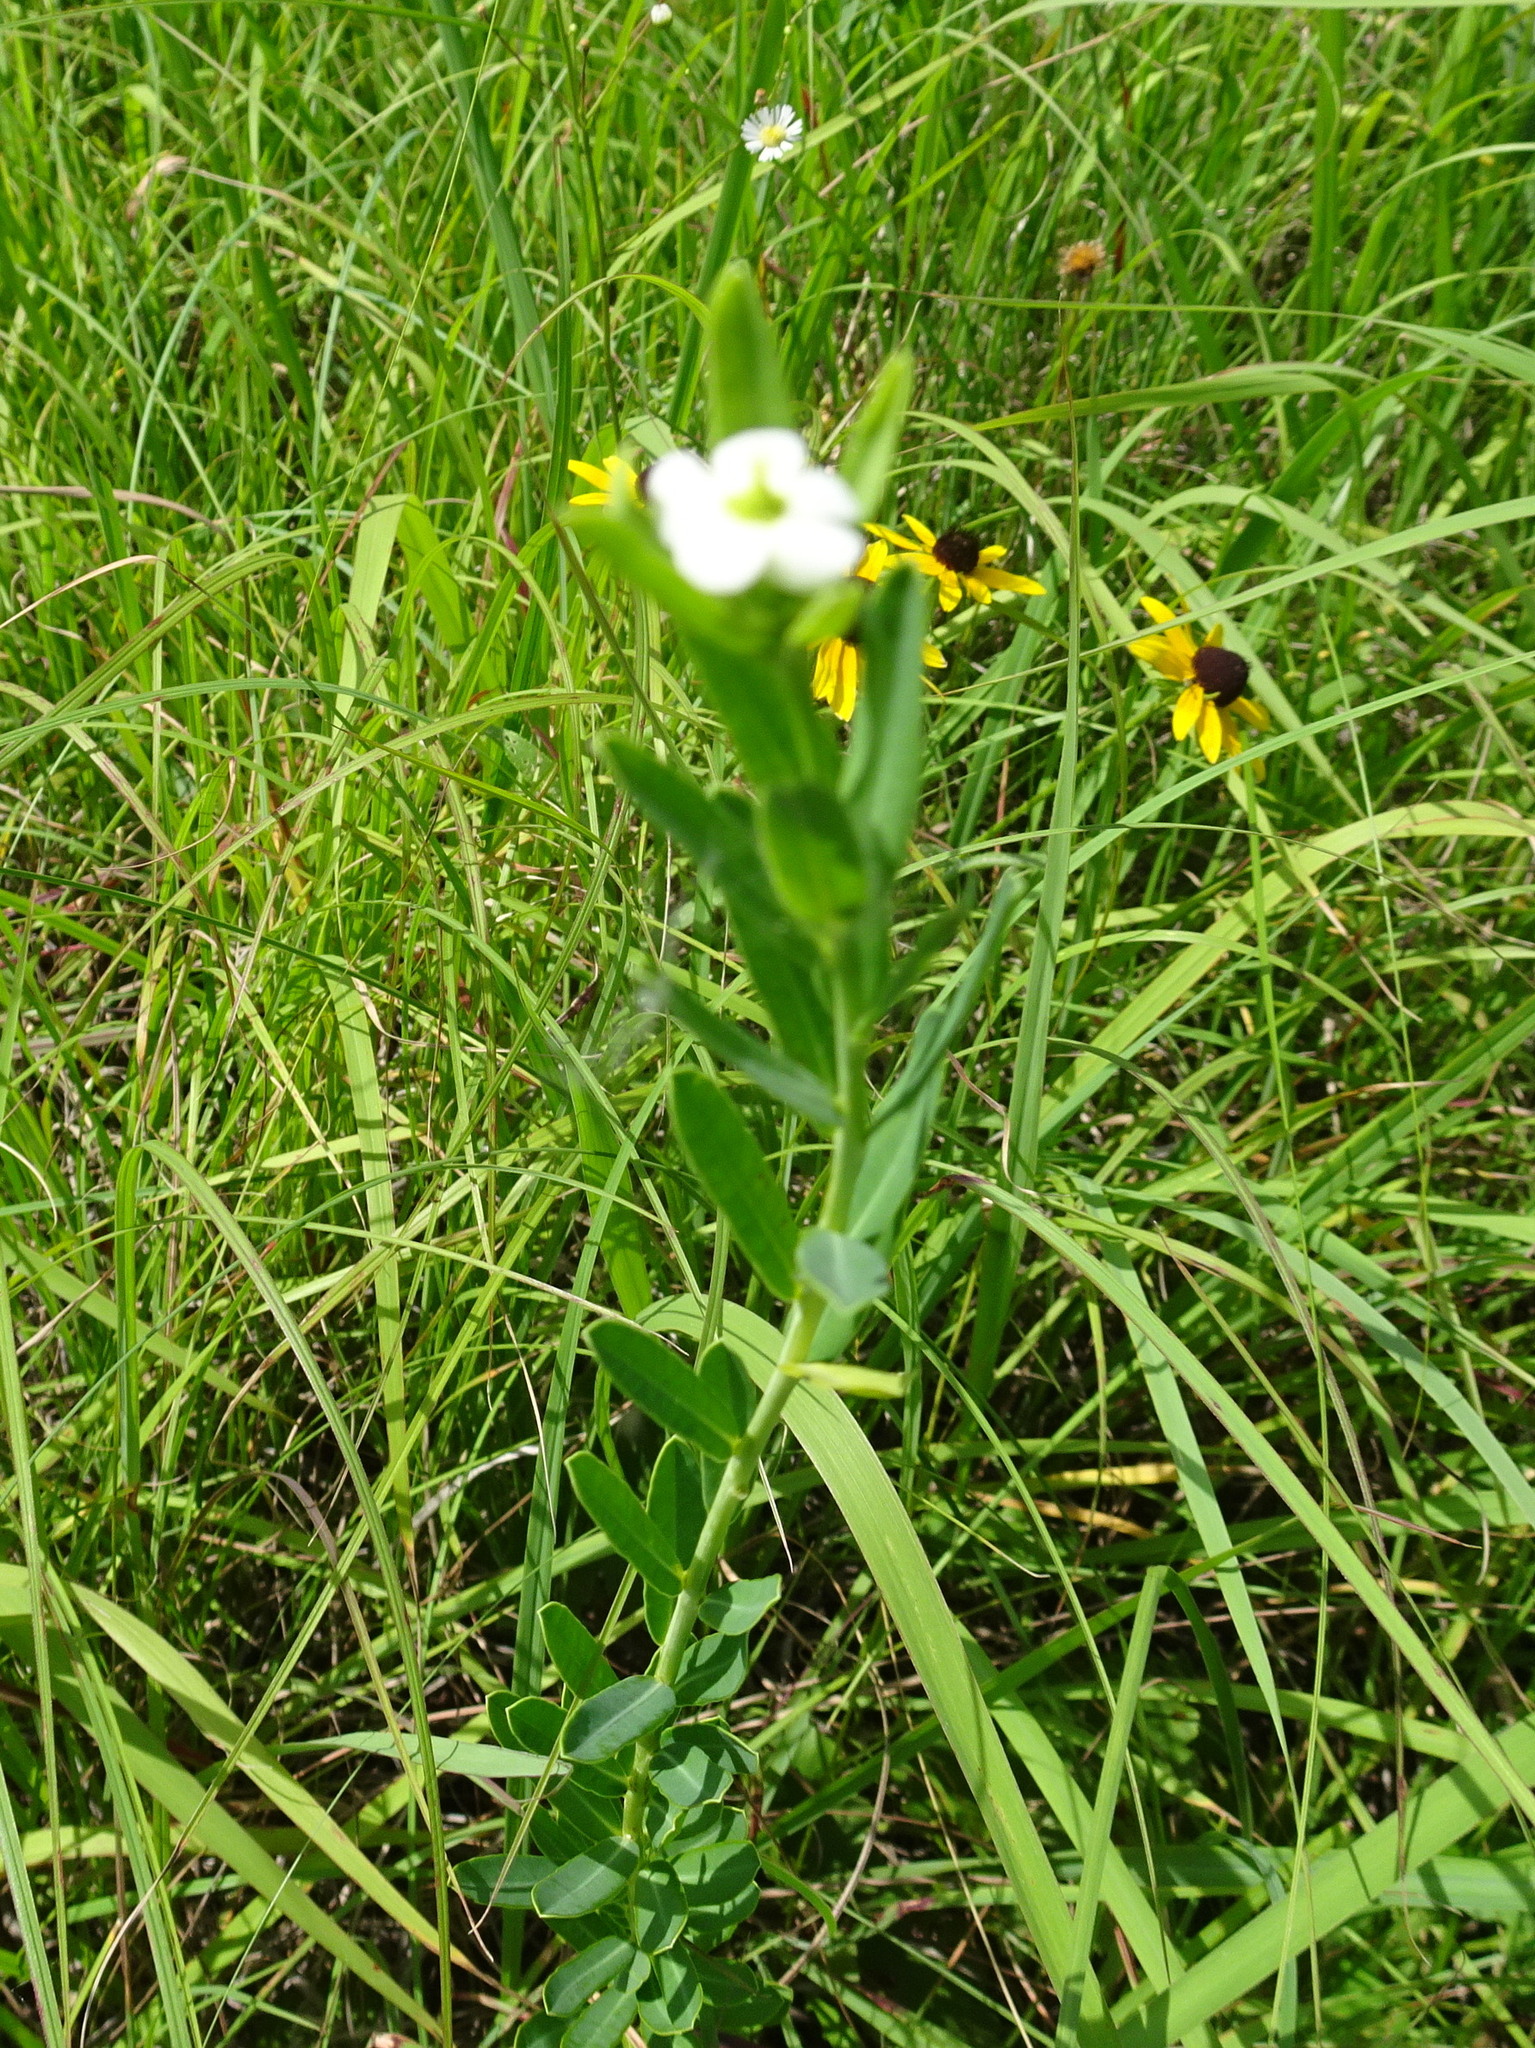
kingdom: Plantae
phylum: Tracheophyta
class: Magnoliopsida
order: Malpighiales
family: Euphorbiaceae
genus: Euphorbia
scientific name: Euphorbia corollata
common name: Flowering spurge
